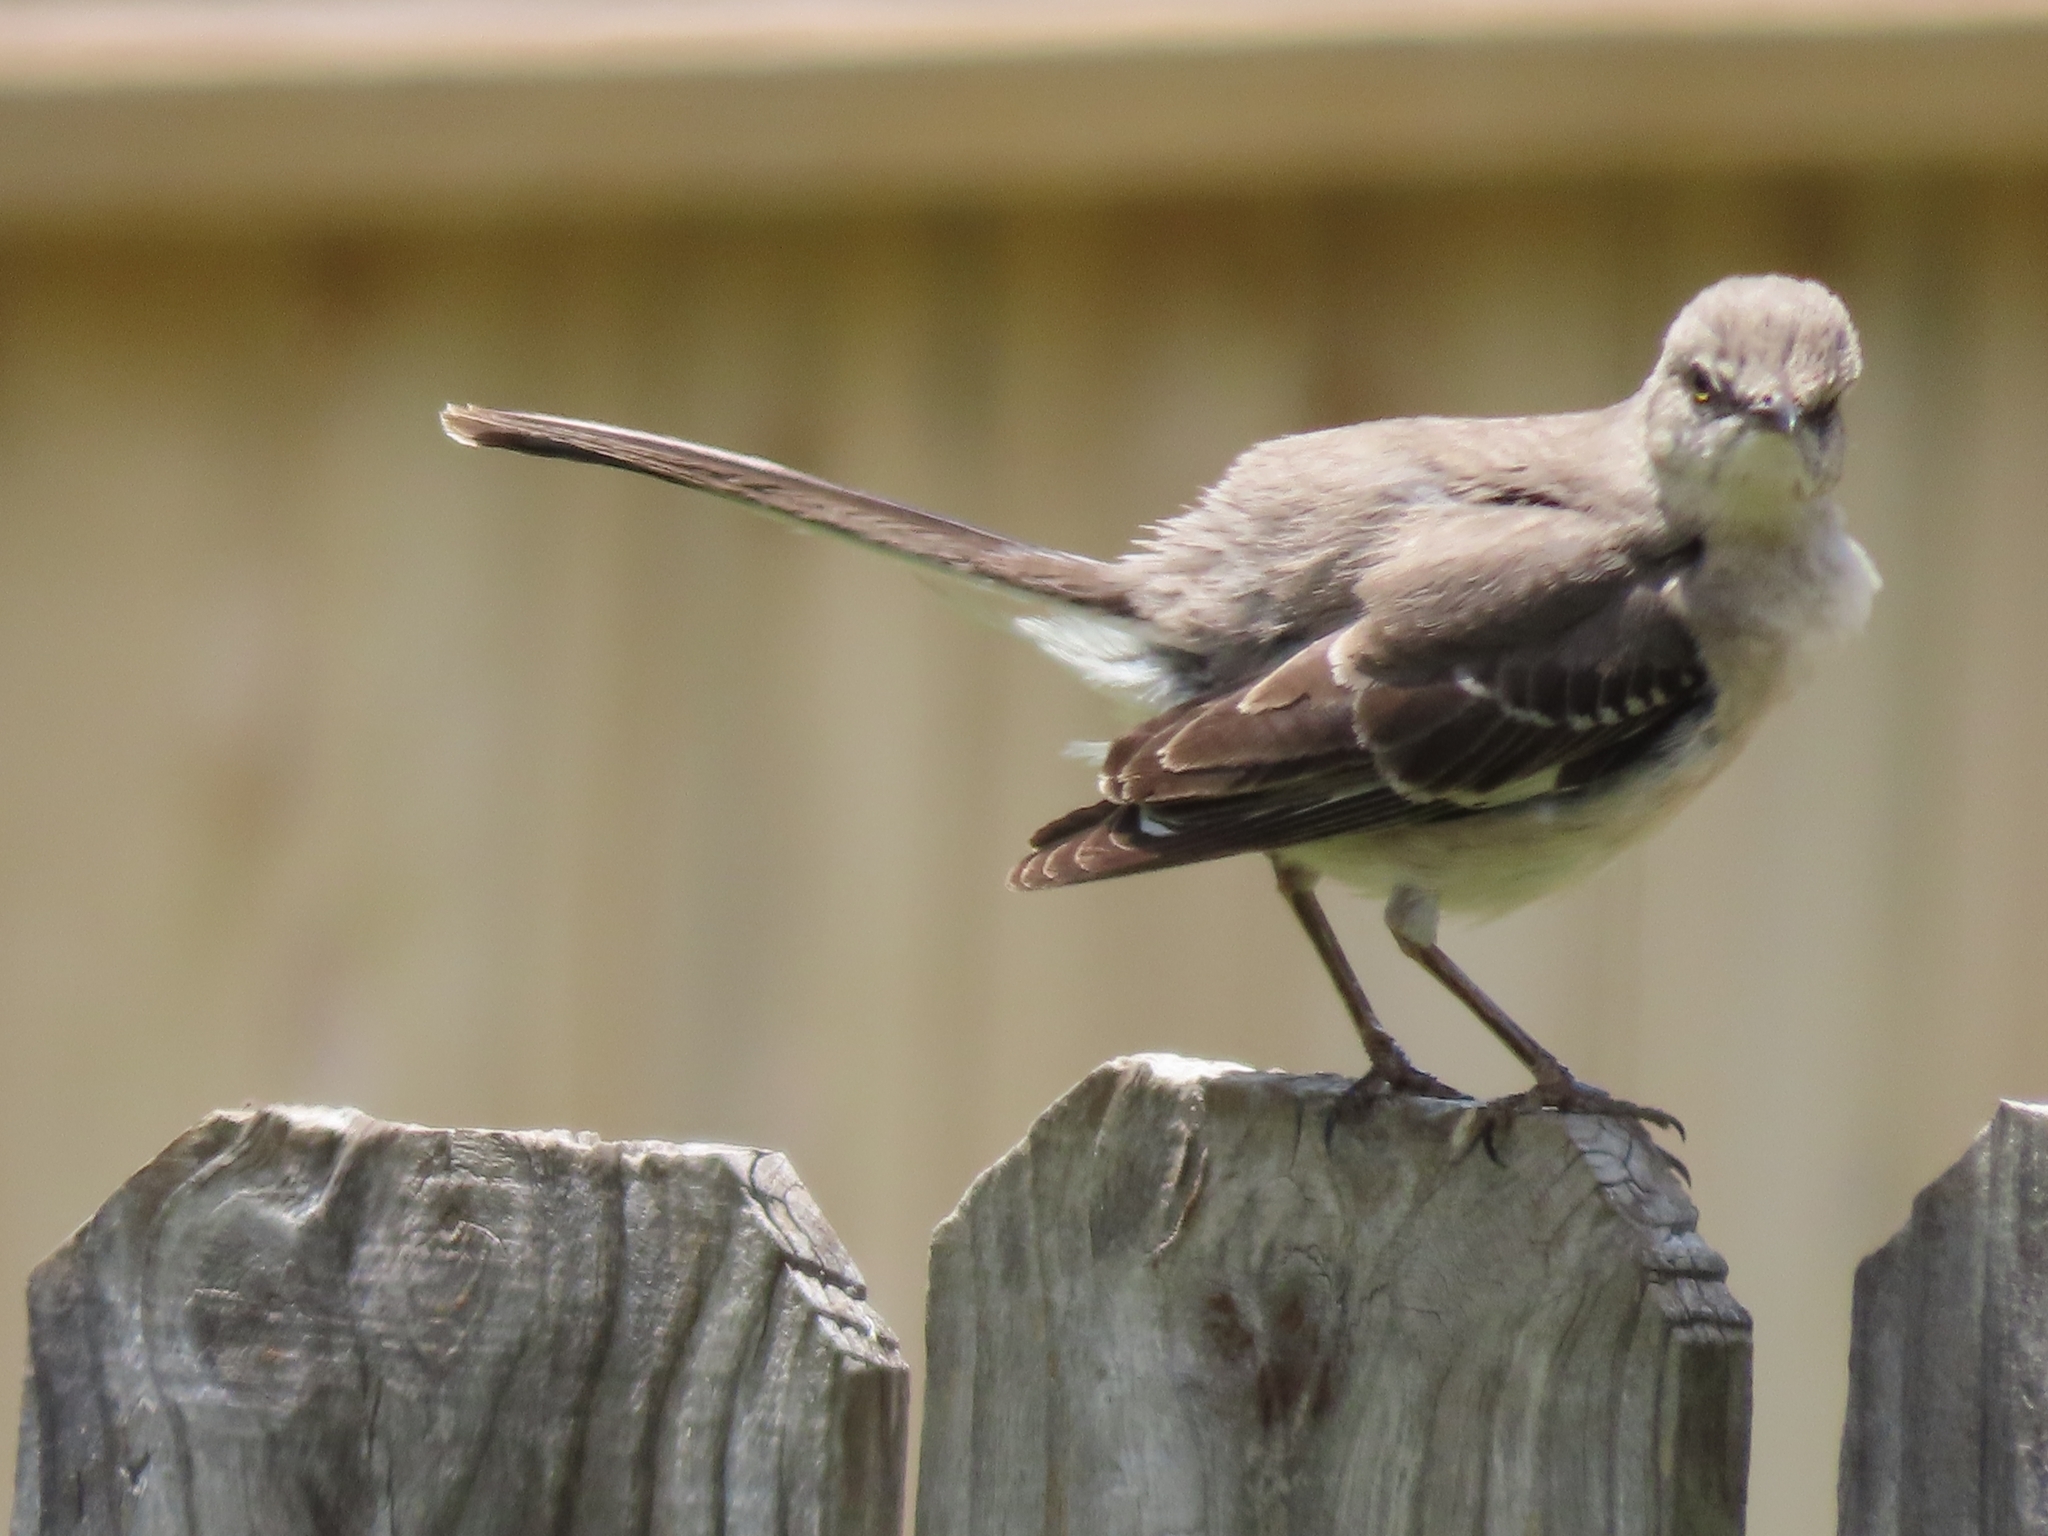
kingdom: Animalia
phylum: Chordata
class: Aves
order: Passeriformes
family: Mimidae
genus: Mimus
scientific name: Mimus polyglottos
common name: Northern mockingbird
